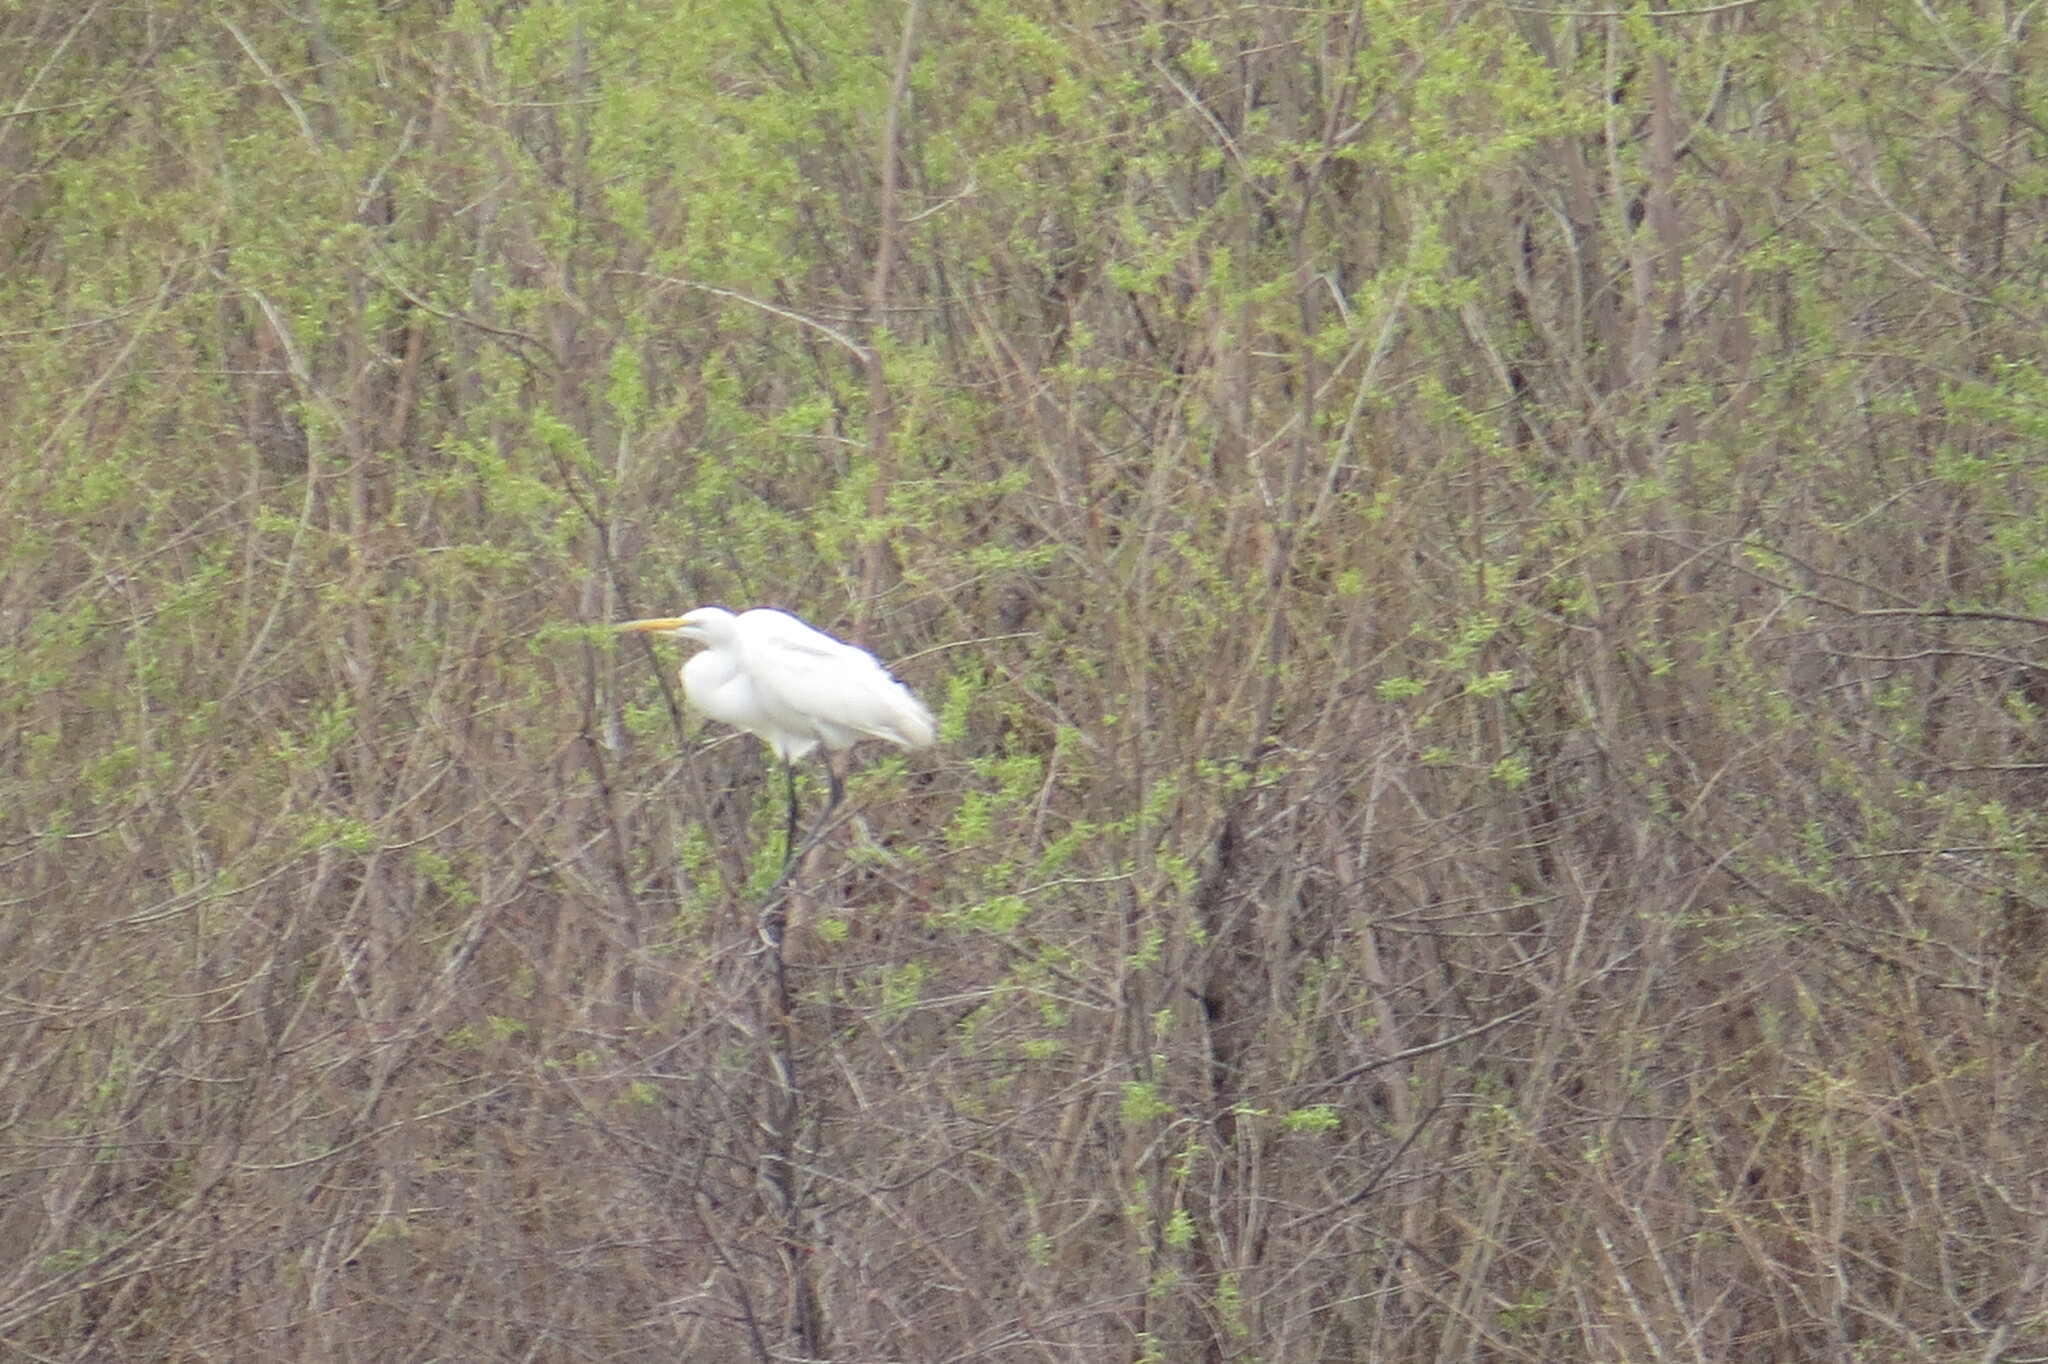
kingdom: Animalia
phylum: Chordata
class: Aves
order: Pelecaniformes
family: Ardeidae
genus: Ardea
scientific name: Ardea alba
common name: Great egret
